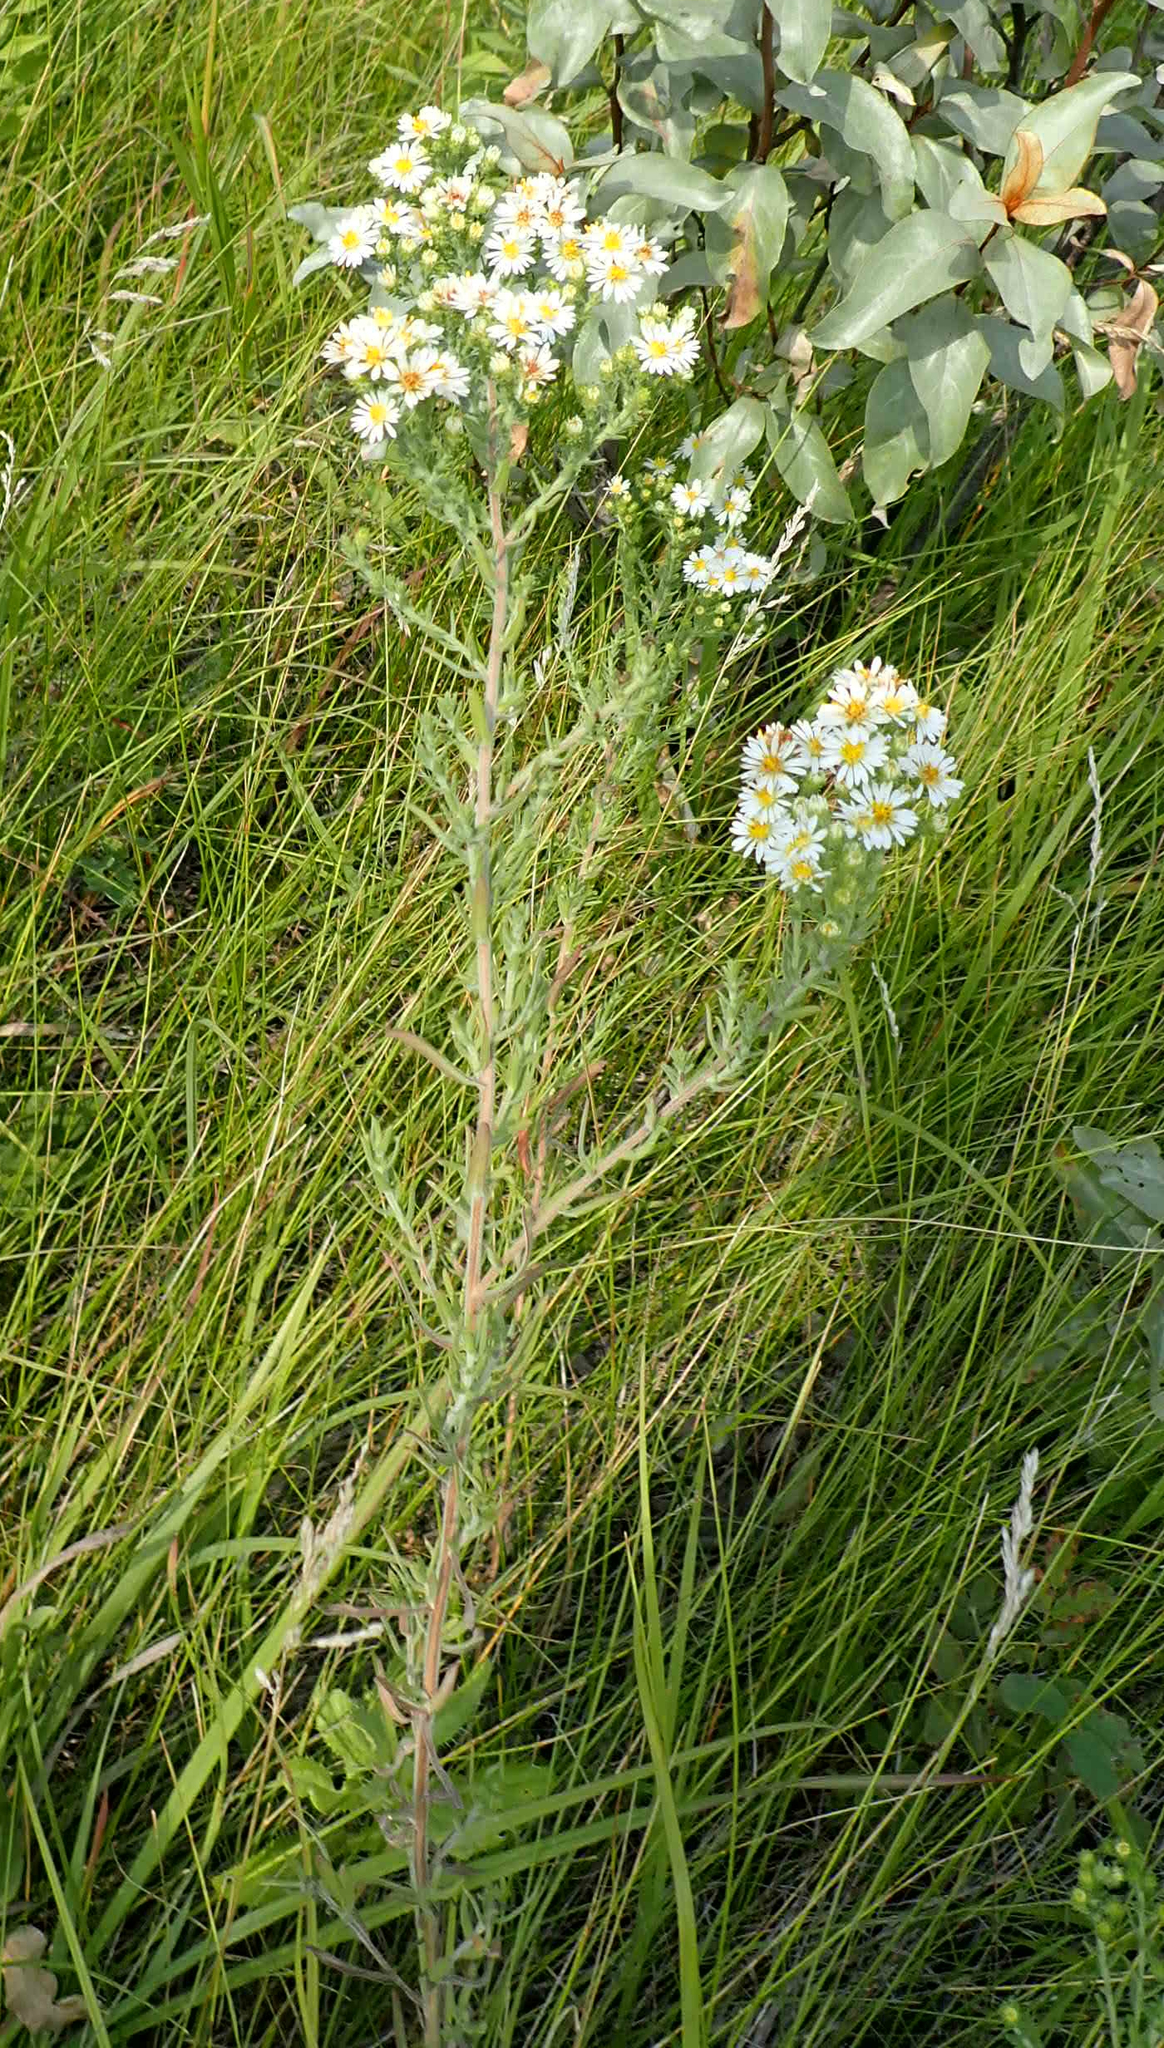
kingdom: Plantae
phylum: Tracheophyta
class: Magnoliopsida
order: Asterales
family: Asteraceae
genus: Symphyotrichum
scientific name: Symphyotrichum ericoides
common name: Heath aster
